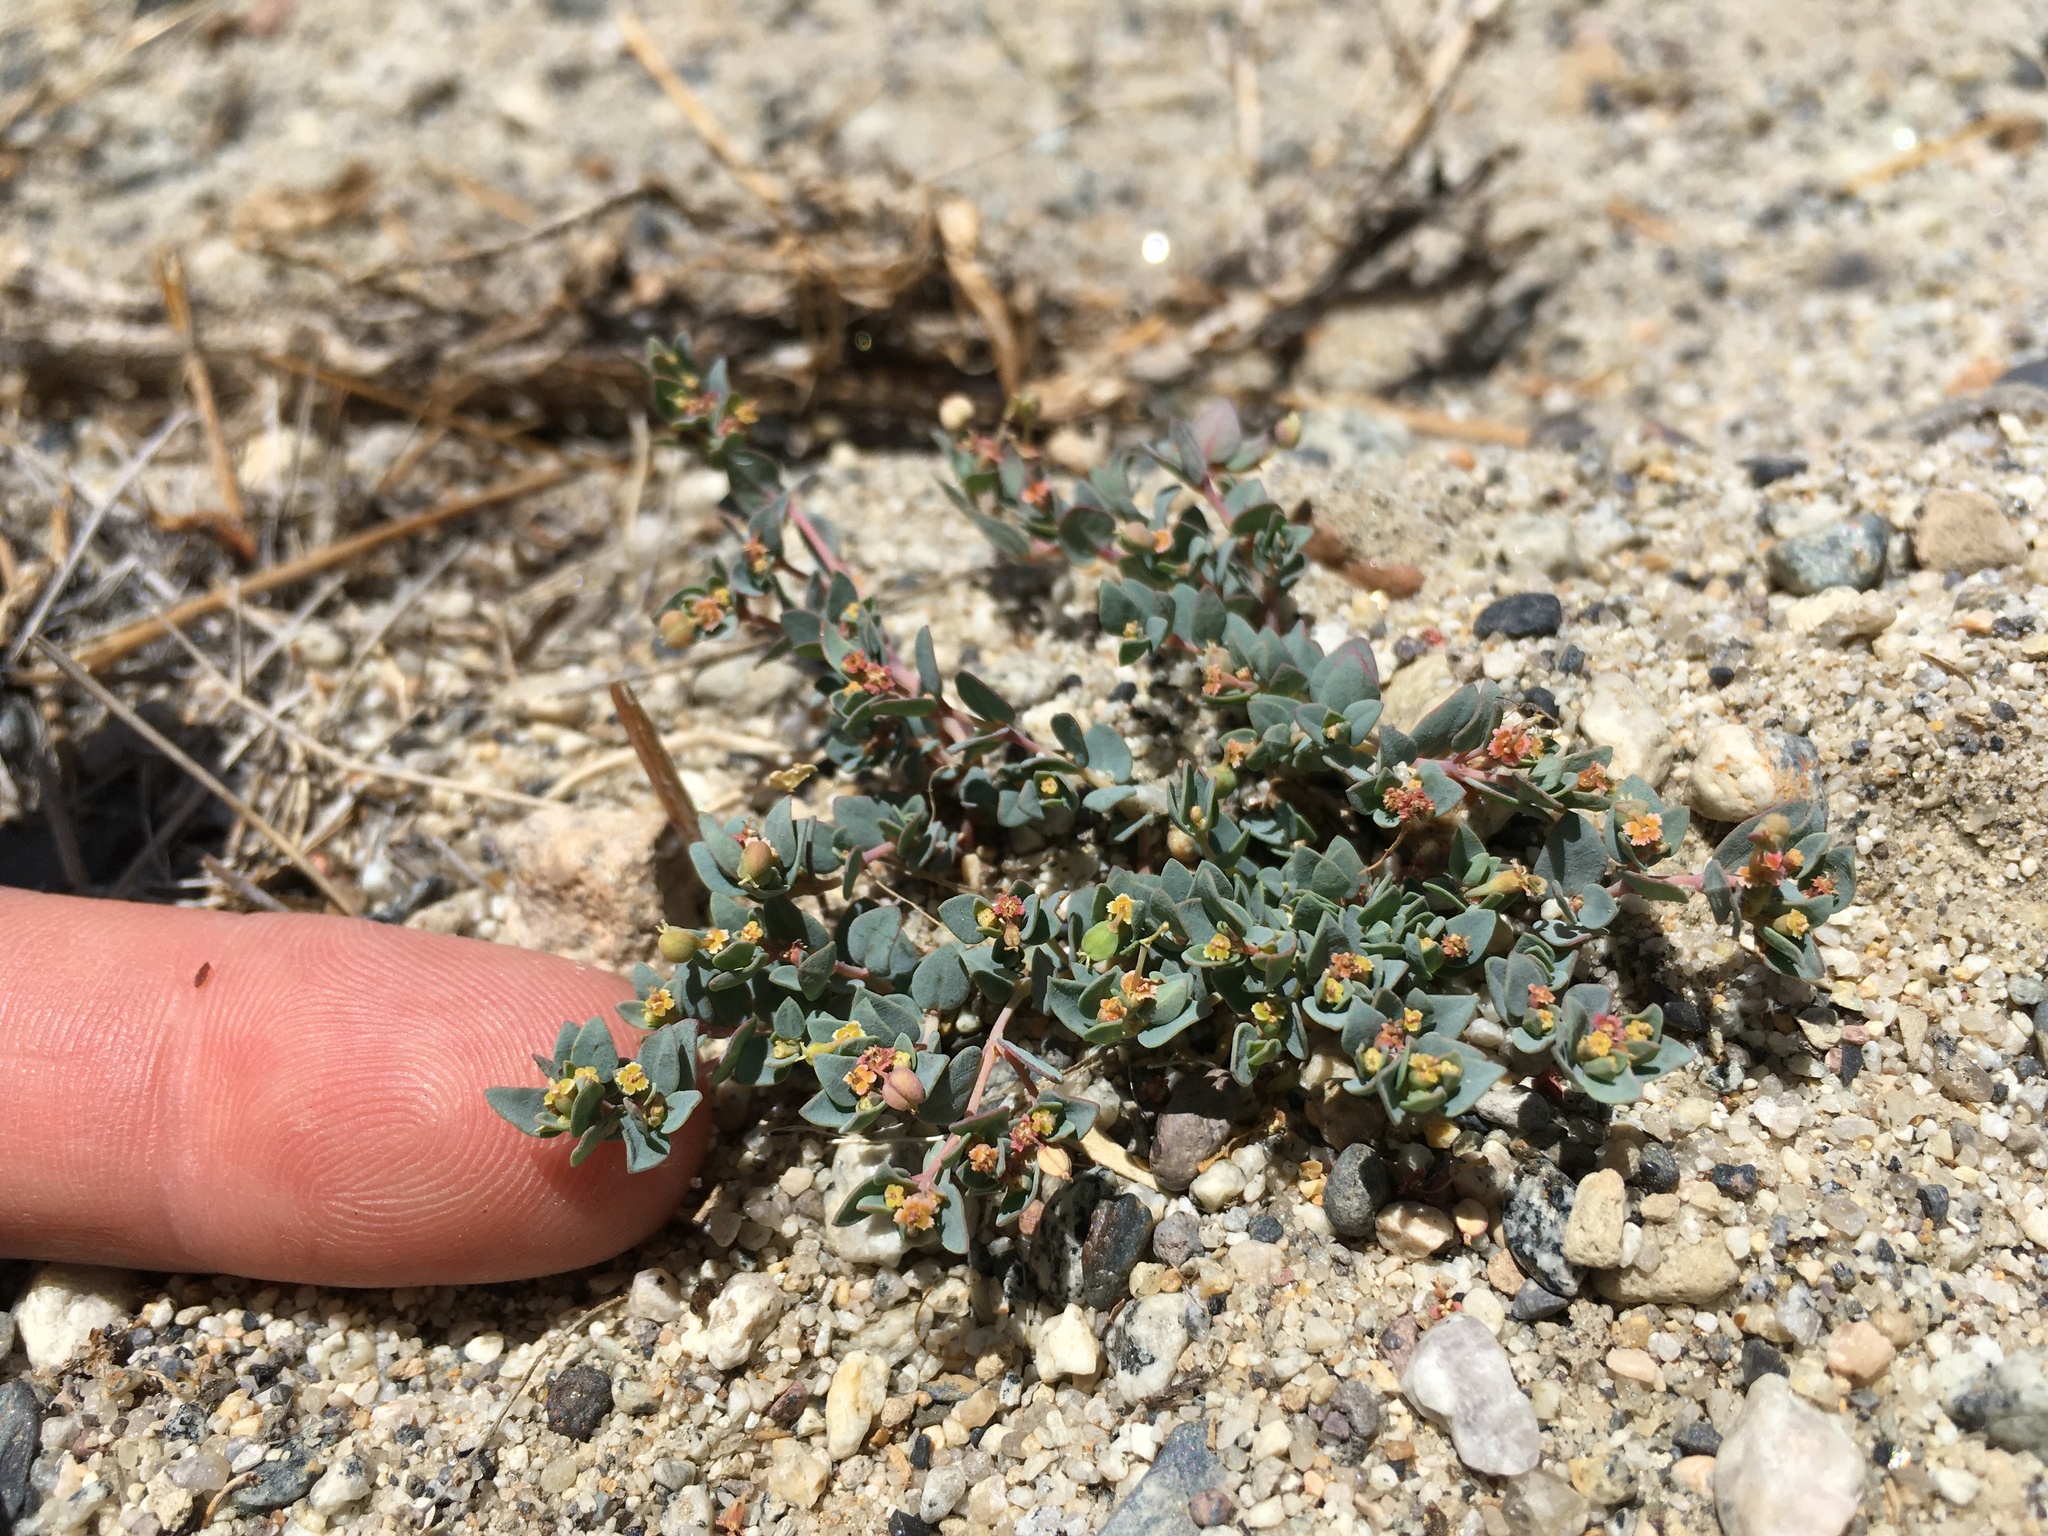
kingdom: Plantae
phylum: Tracheophyta
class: Magnoliopsida
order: Malpighiales
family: Euphorbiaceae
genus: Euphorbia
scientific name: Euphorbia fendleri
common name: Fendler's euphorbia
